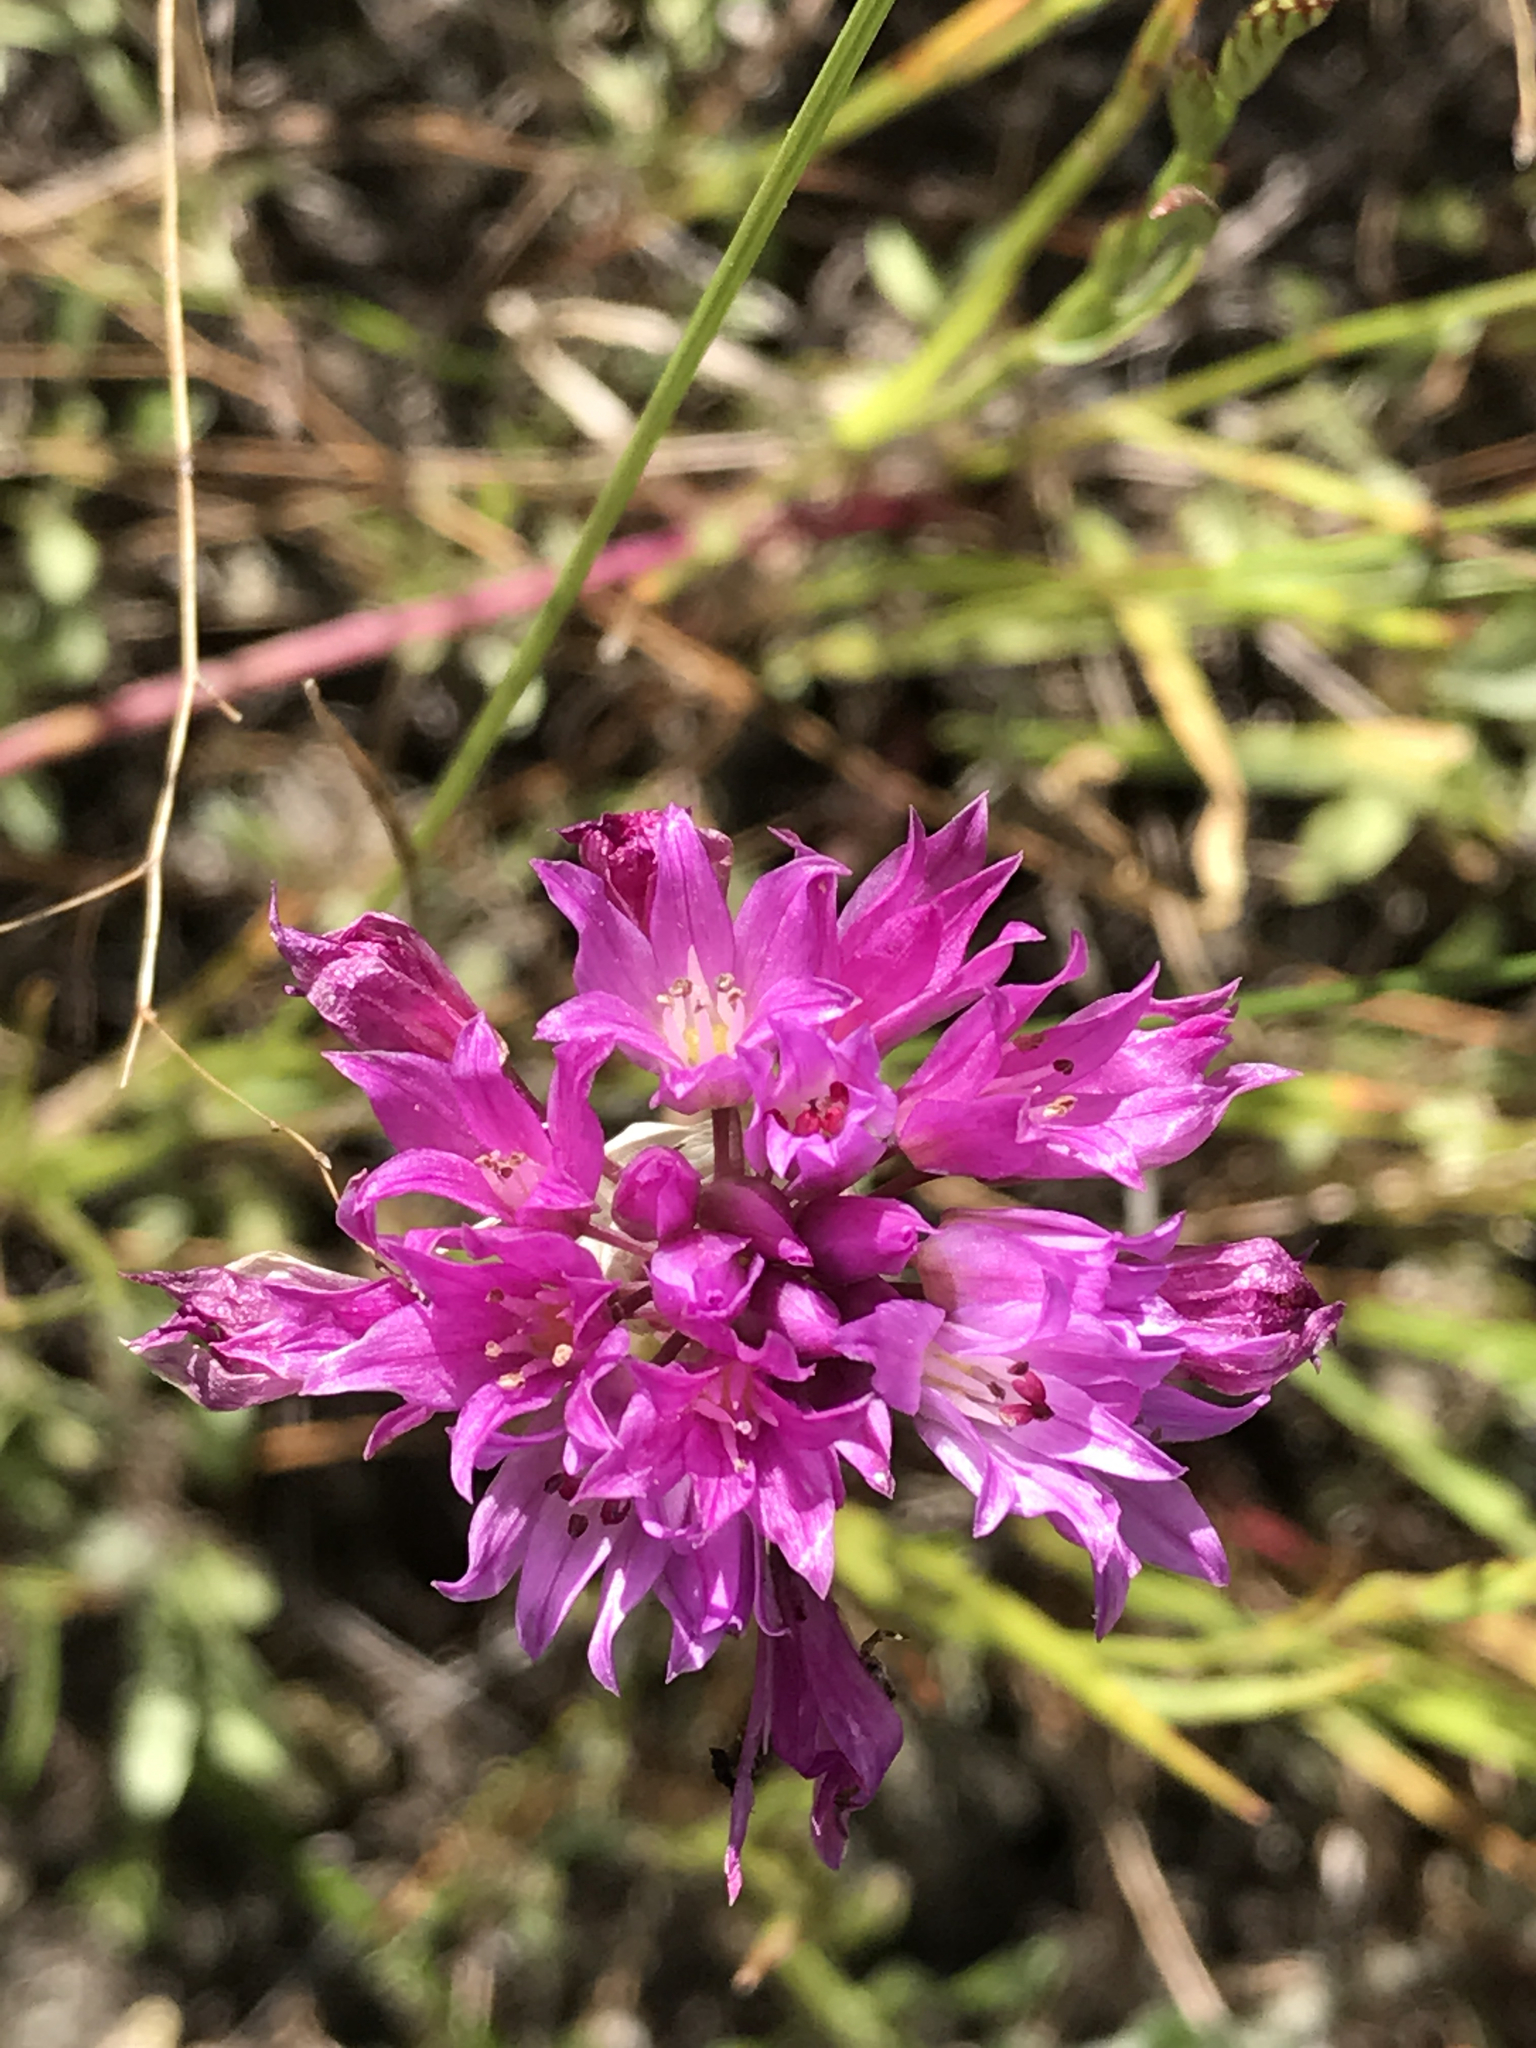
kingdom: Plantae
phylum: Tracheophyta
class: Liliopsida
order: Asparagales
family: Amaryllidaceae
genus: Allium
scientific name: Allium serra
